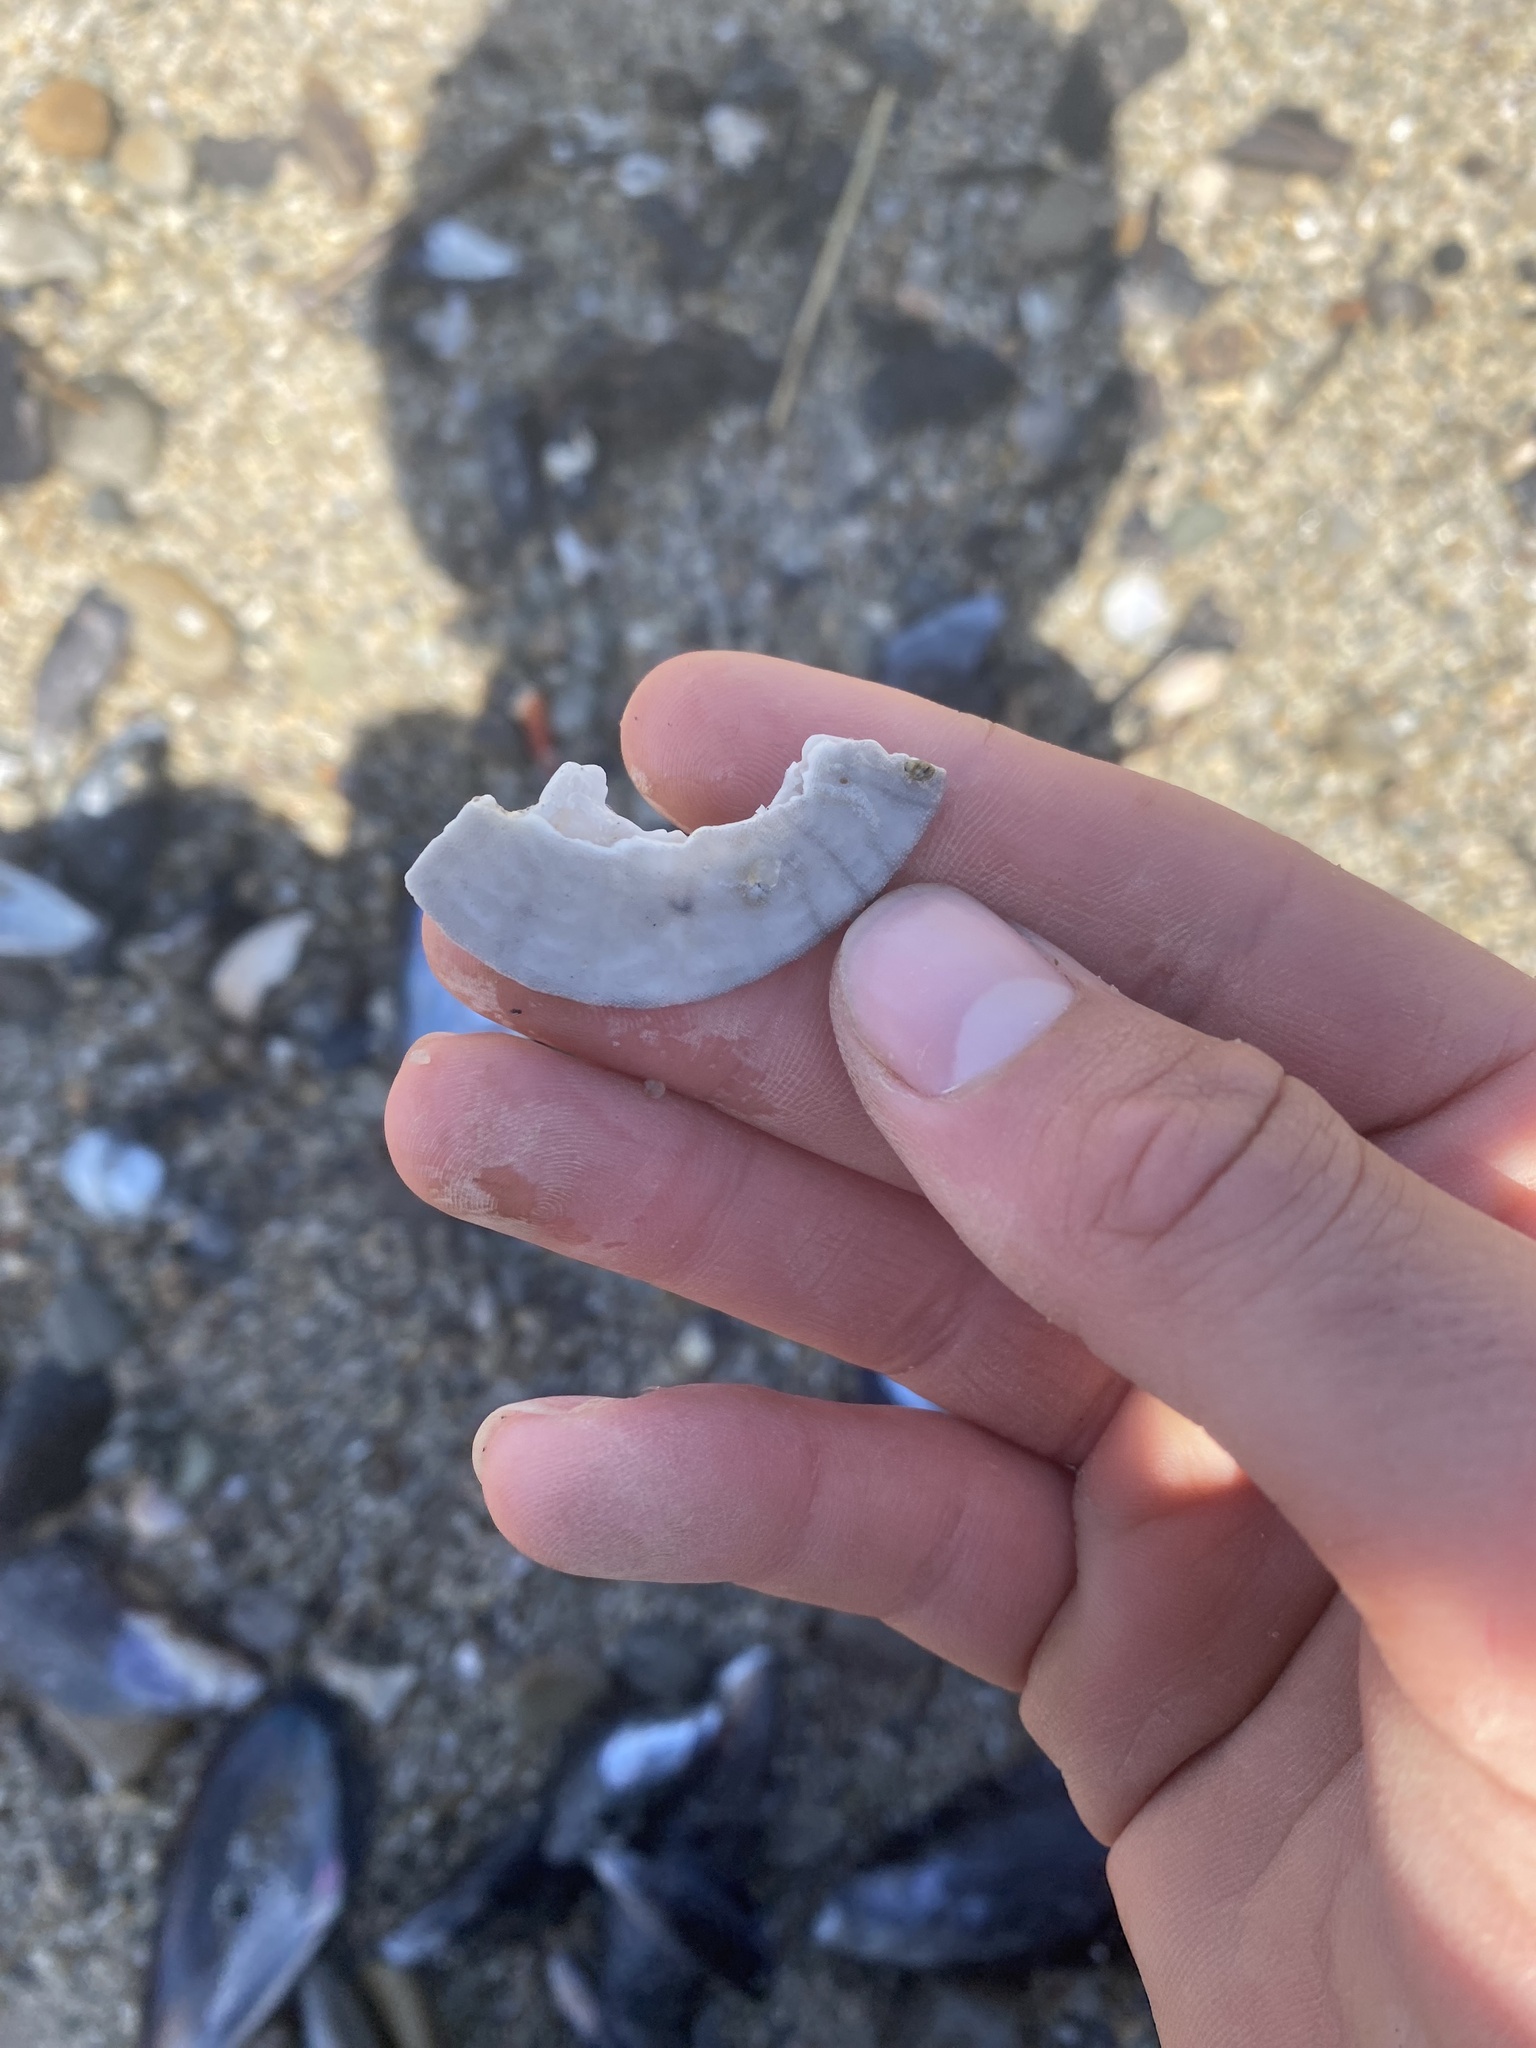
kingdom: Animalia
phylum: Echinodermata
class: Echinoidea
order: Echinolampadacea
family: Dendrasteridae
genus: Dendraster
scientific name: Dendraster excentricus
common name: Eccentric sand dollar sea urchin
